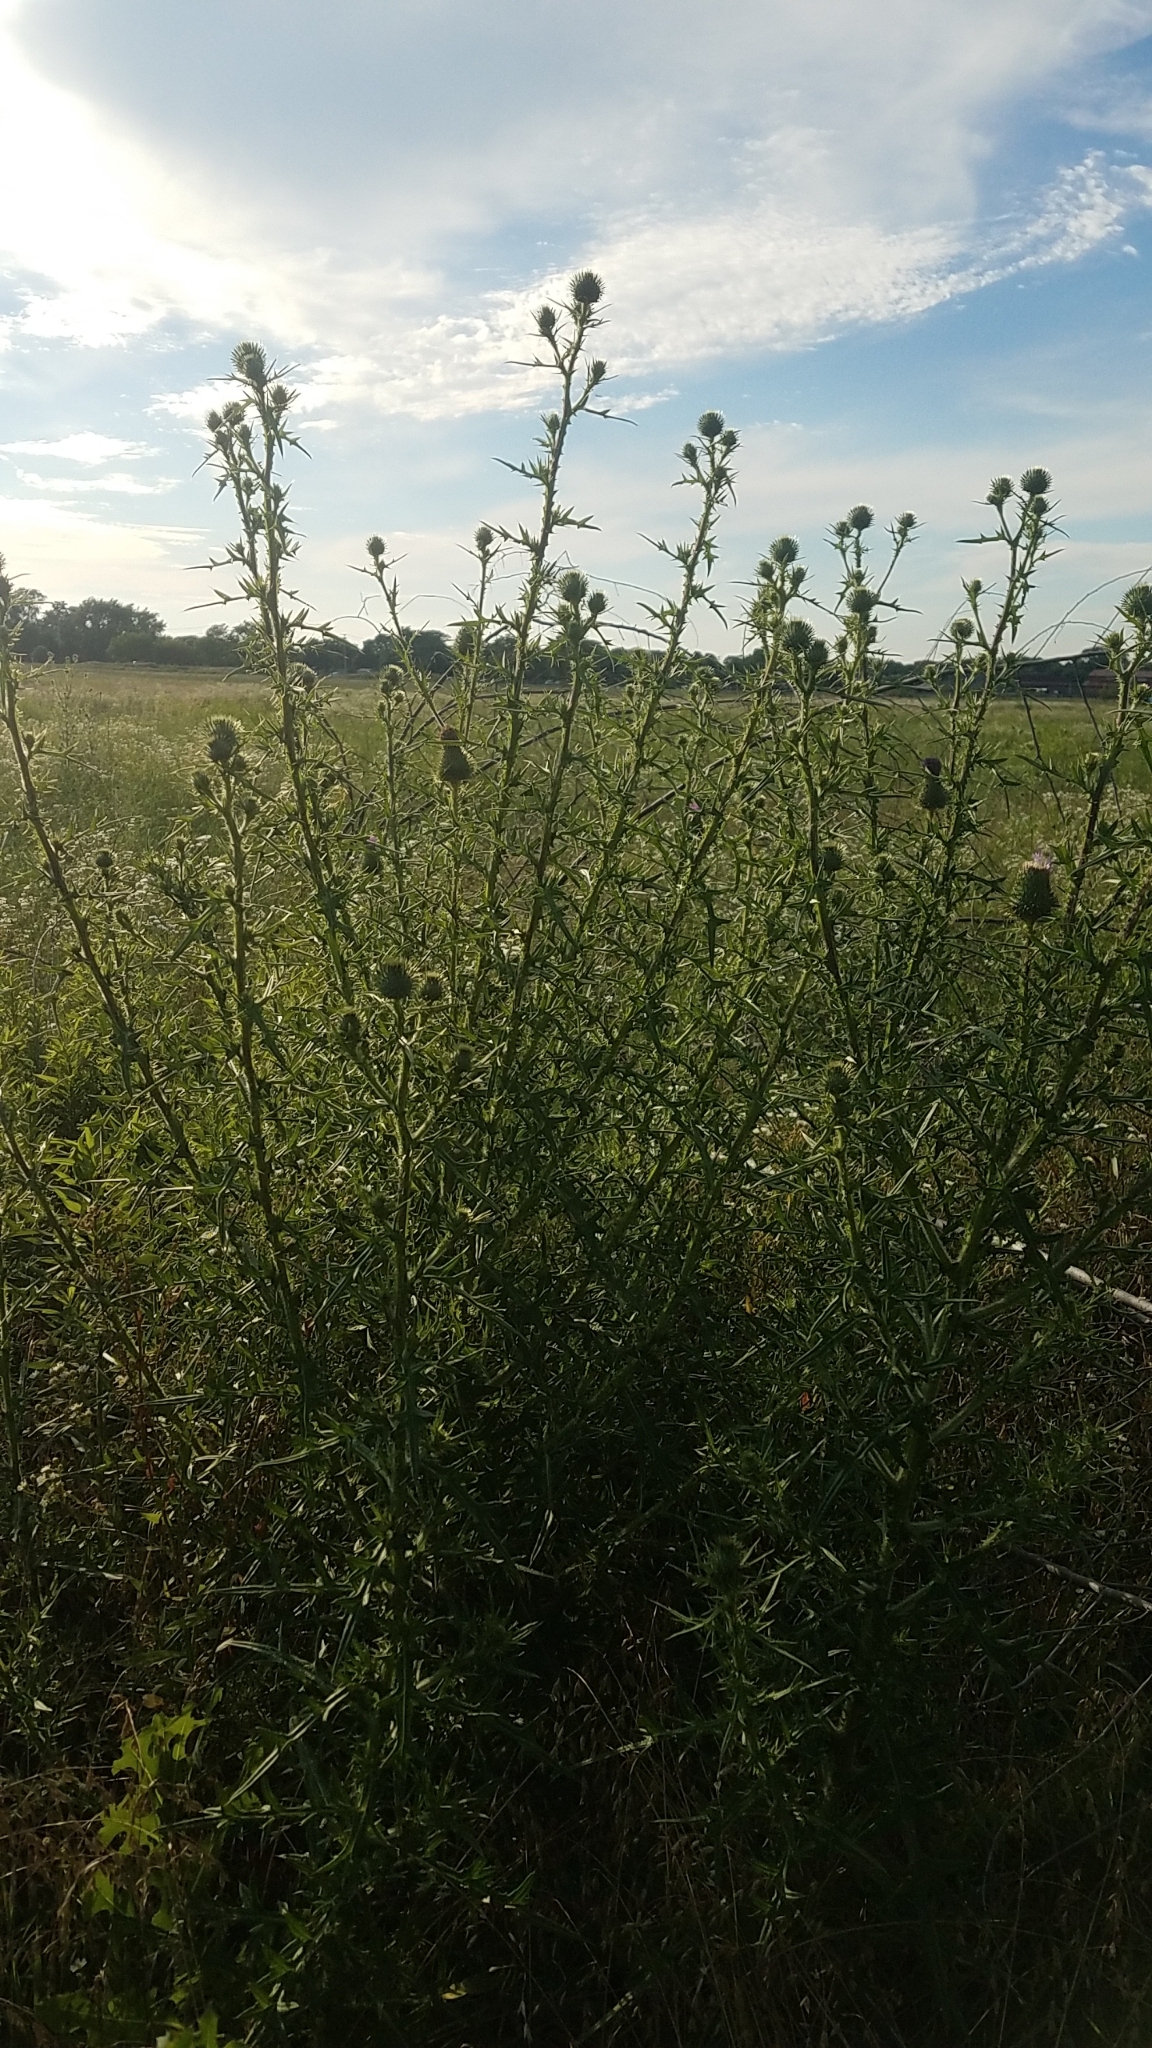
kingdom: Plantae
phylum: Tracheophyta
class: Magnoliopsida
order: Asterales
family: Asteraceae
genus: Cirsium
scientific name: Cirsium vulgare
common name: Bull thistle
